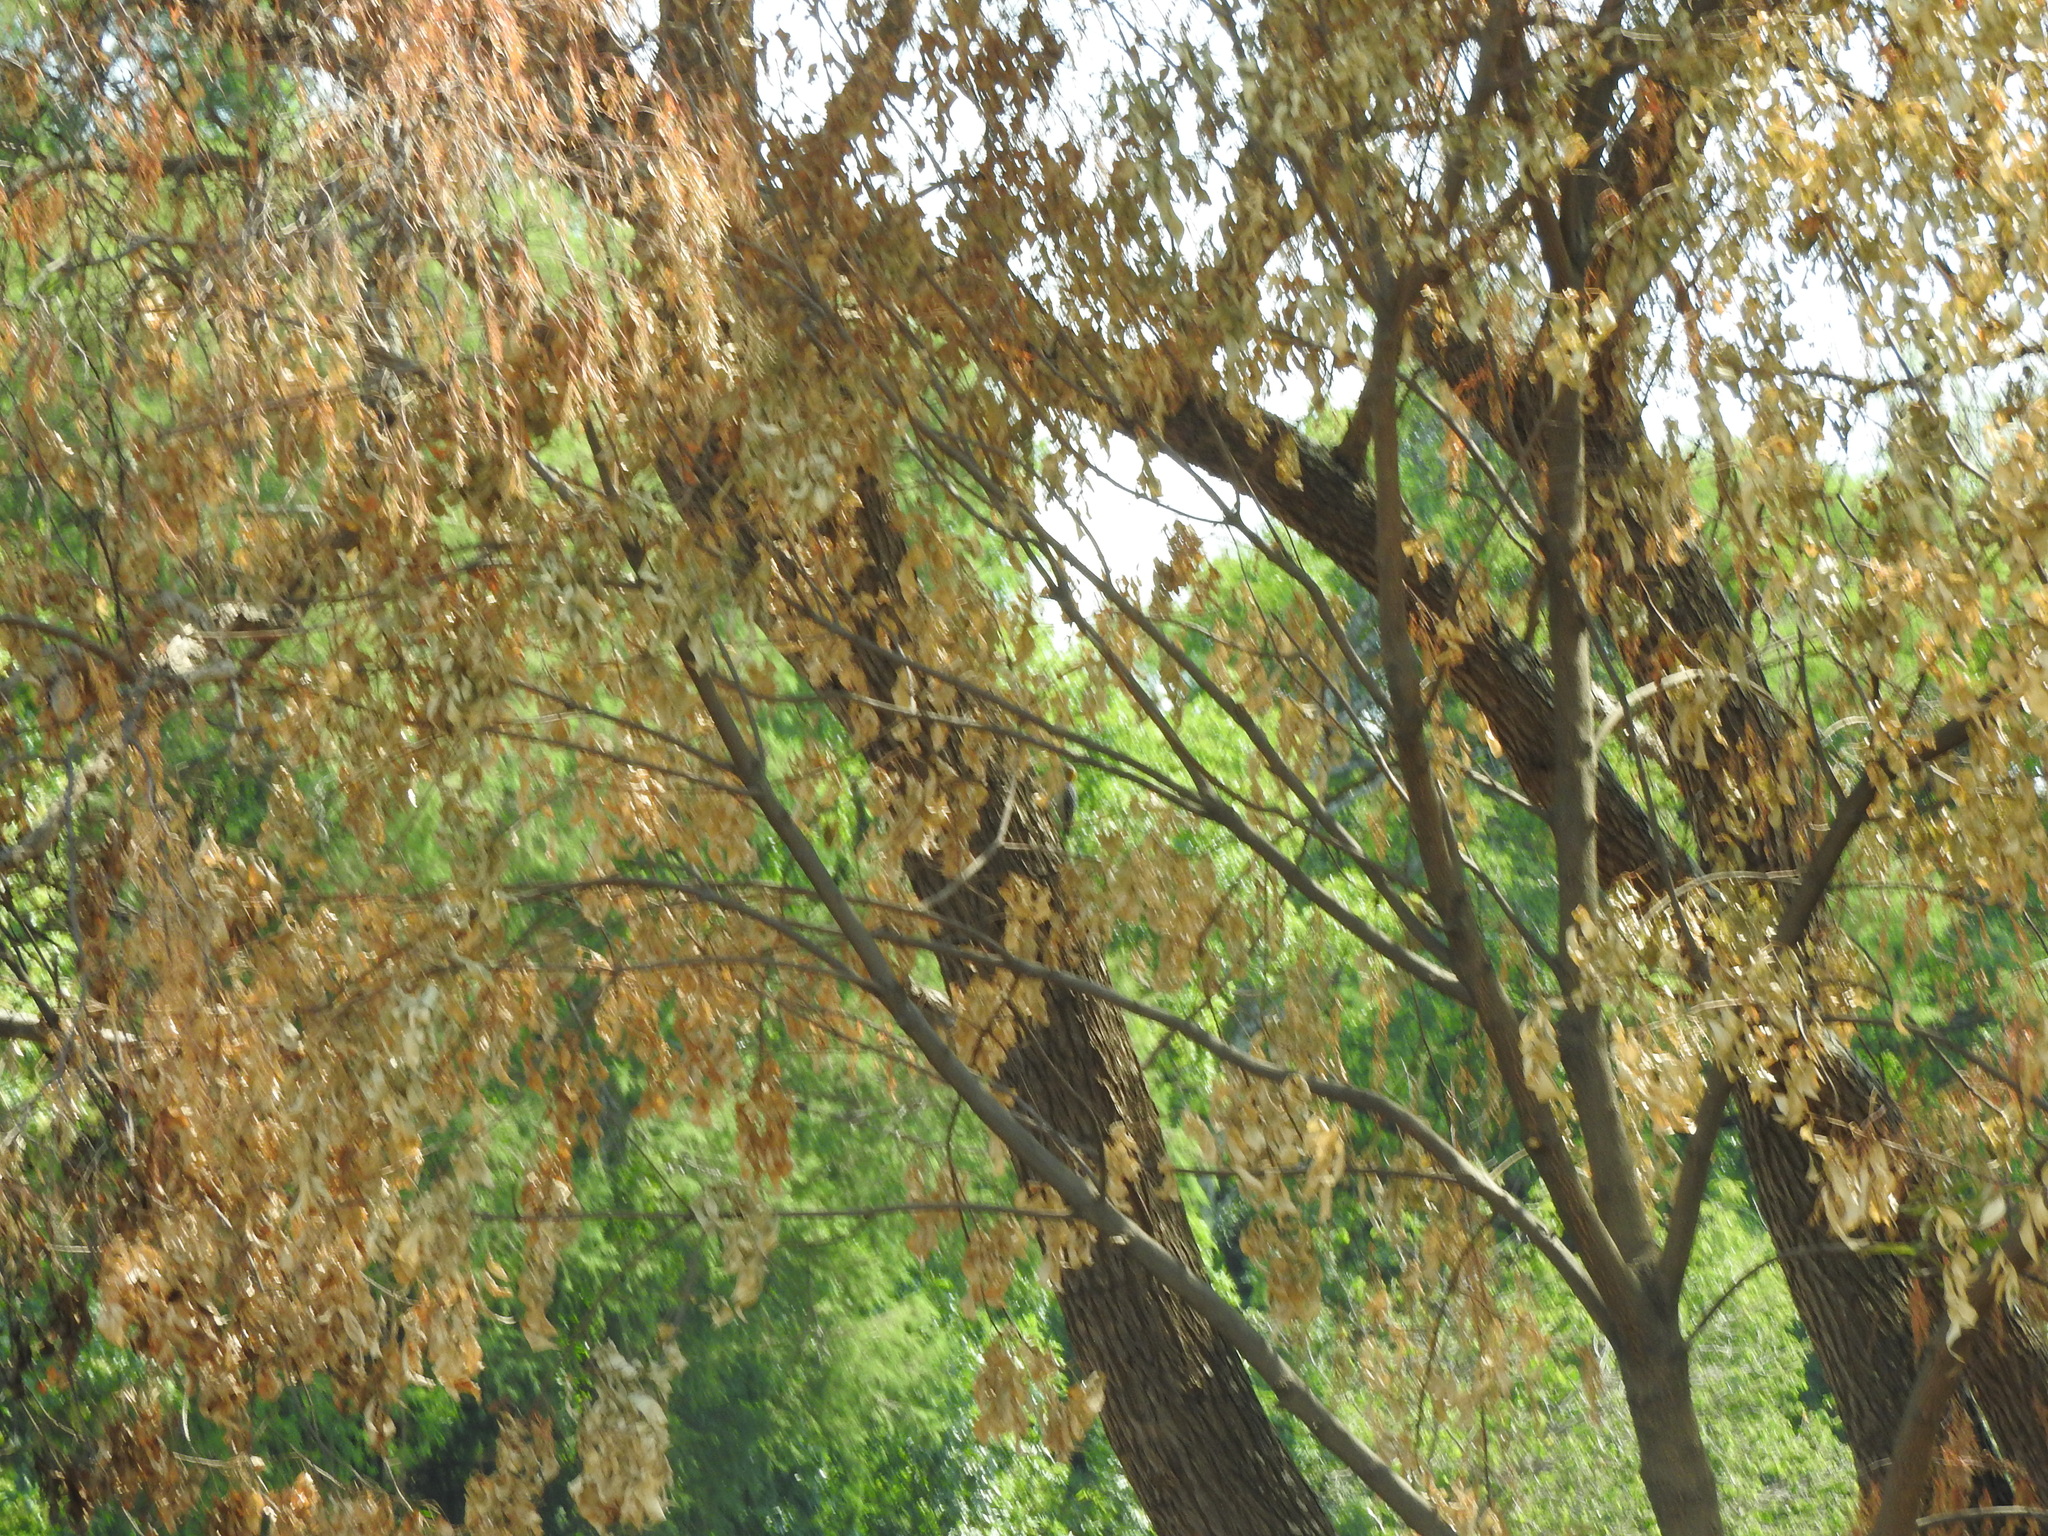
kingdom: Animalia
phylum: Chordata
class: Aves
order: Piciformes
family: Picidae
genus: Melanerpes
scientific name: Melanerpes aurifrons
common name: Golden-fronted woodpecker
